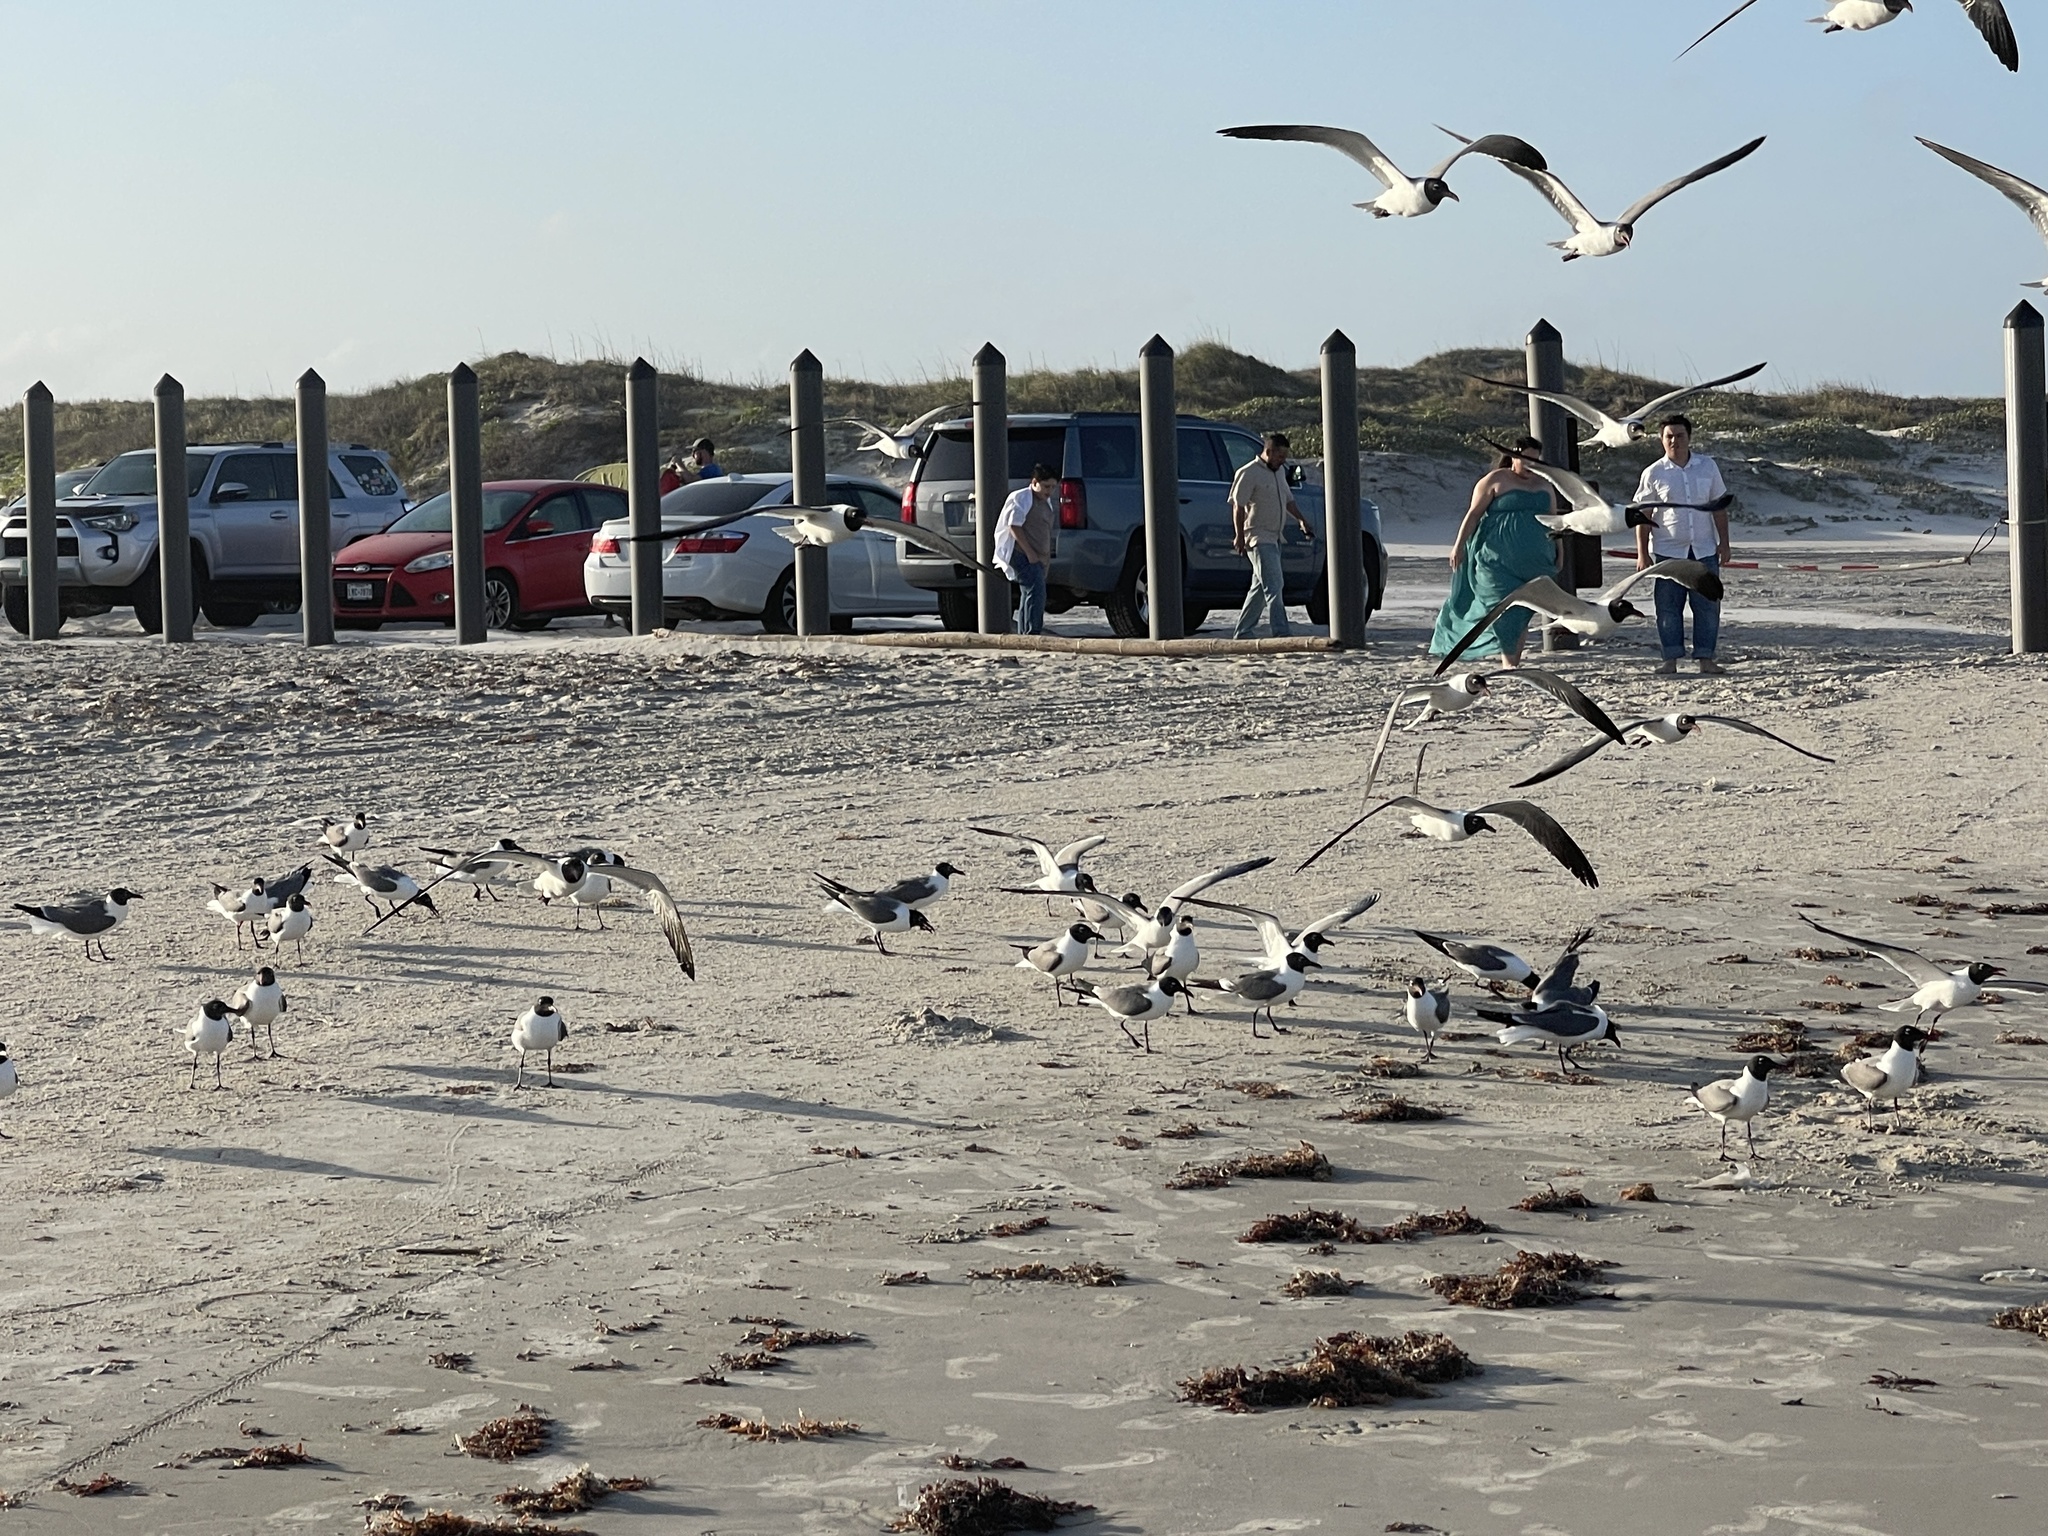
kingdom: Animalia
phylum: Chordata
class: Aves
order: Charadriiformes
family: Laridae
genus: Leucophaeus
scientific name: Leucophaeus atricilla
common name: Laughing gull
